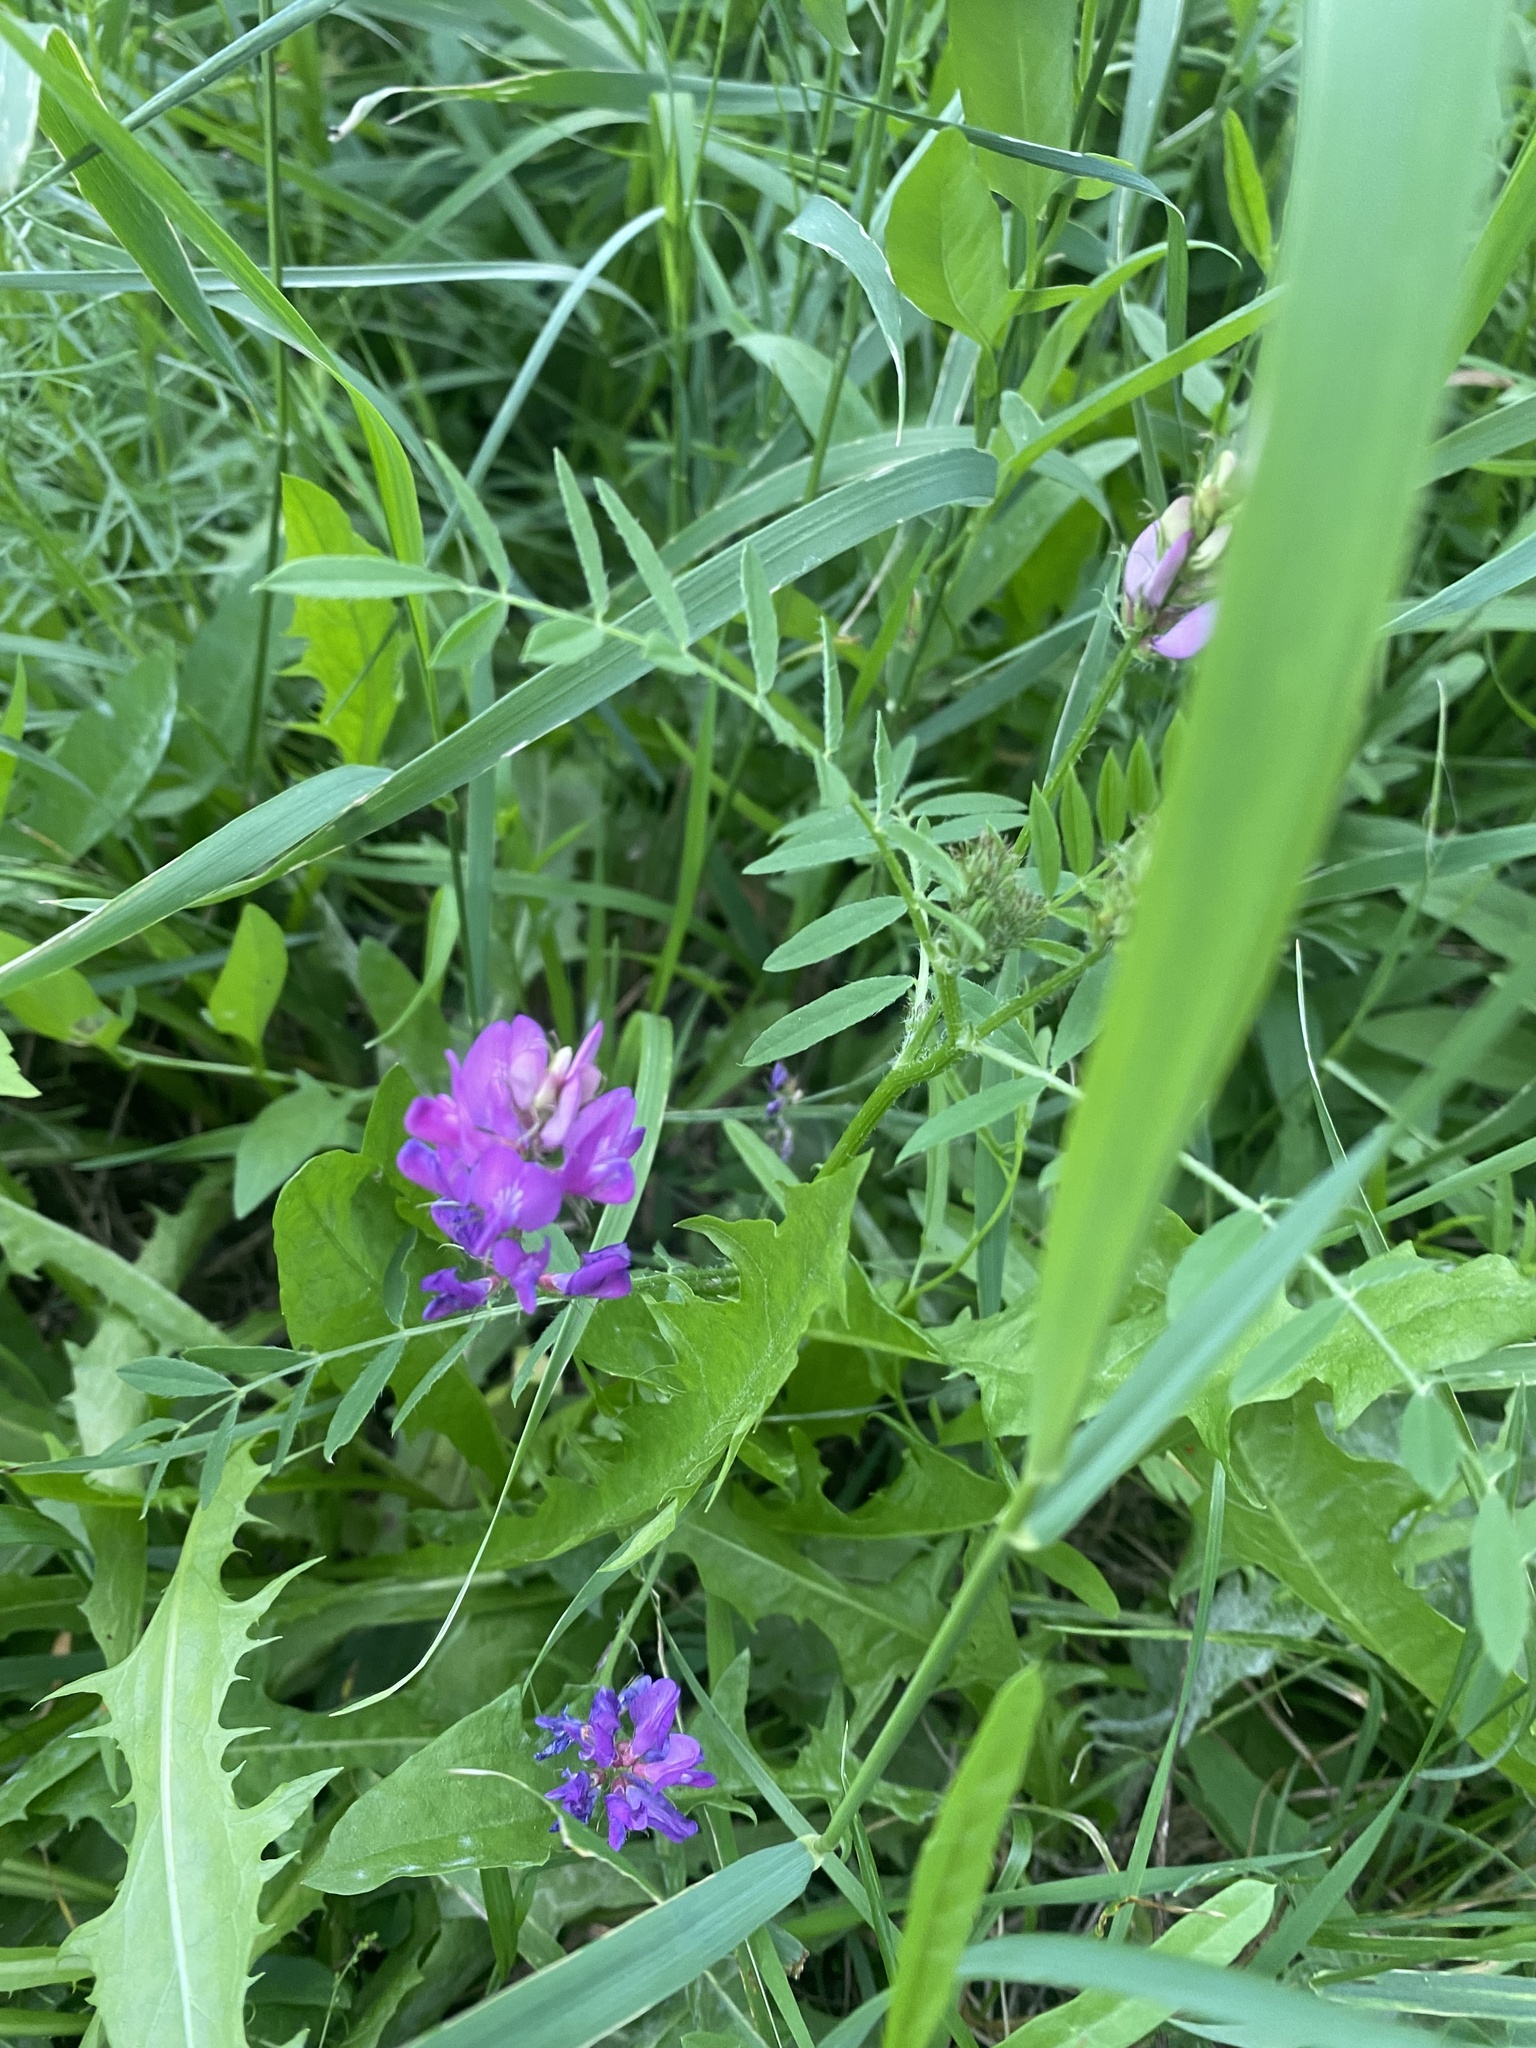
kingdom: Plantae
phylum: Tracheophyta
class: Magnoliopsida
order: Fabales
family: Fabaceae
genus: Astragalus
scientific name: Astragalus davuricus
